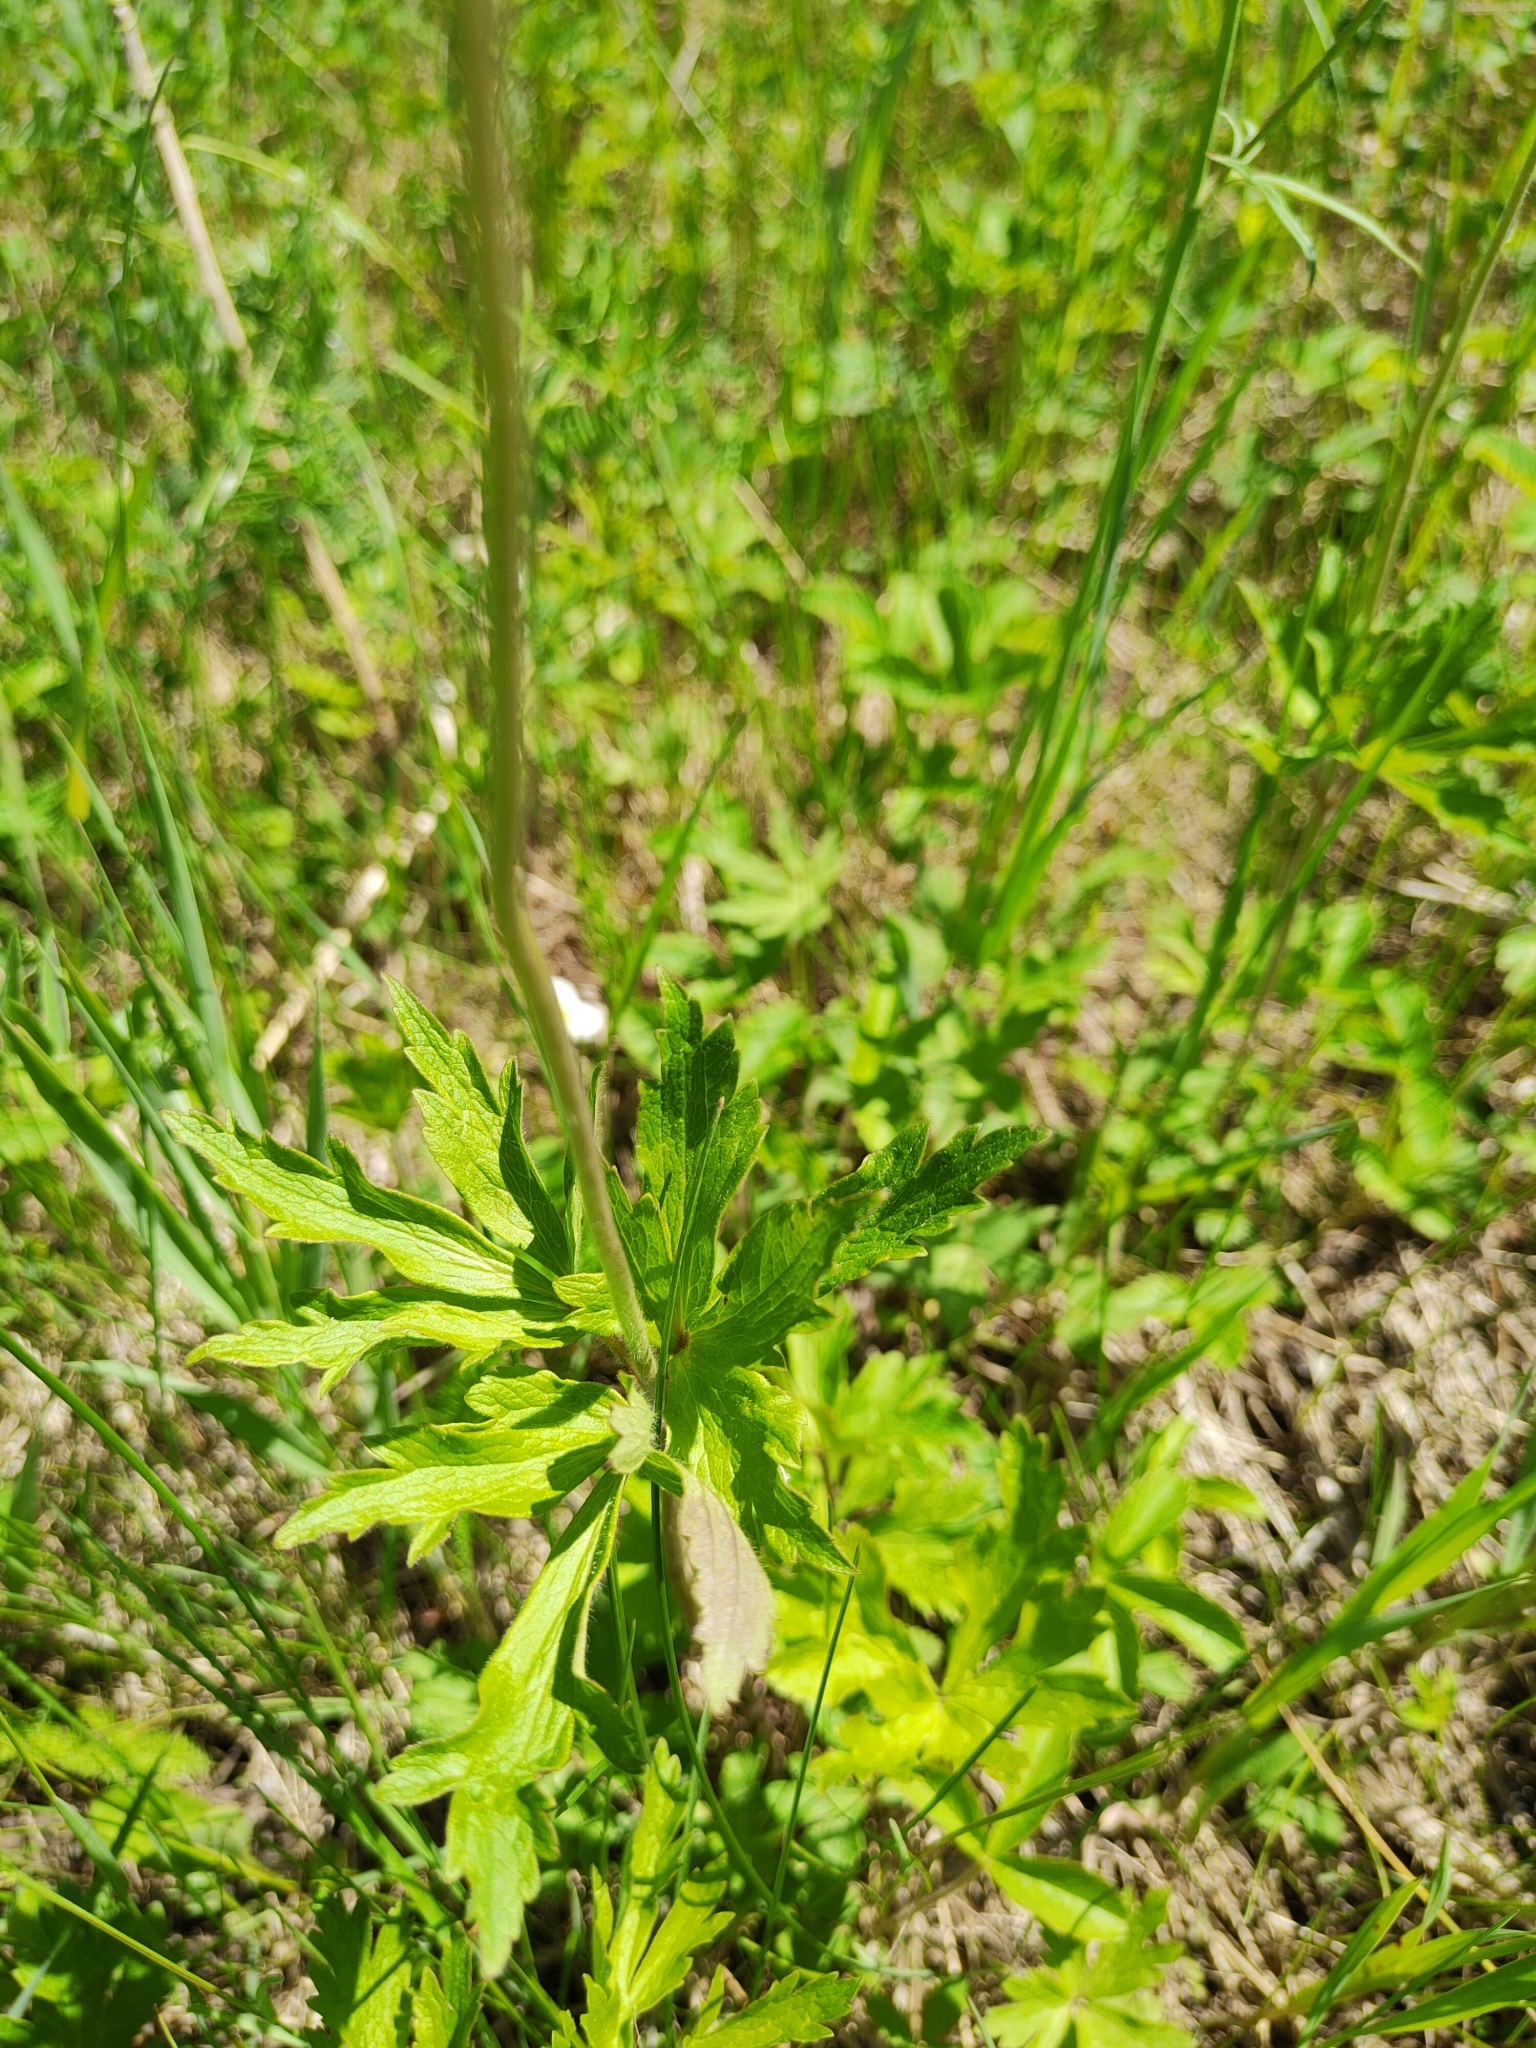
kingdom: Plantae
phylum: Tracheophyta
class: Magnoliopsida
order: Ranunculales
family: Ranunculaceae
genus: Anemone
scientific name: Anemone sylvestris
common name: Snowdrop anemone
